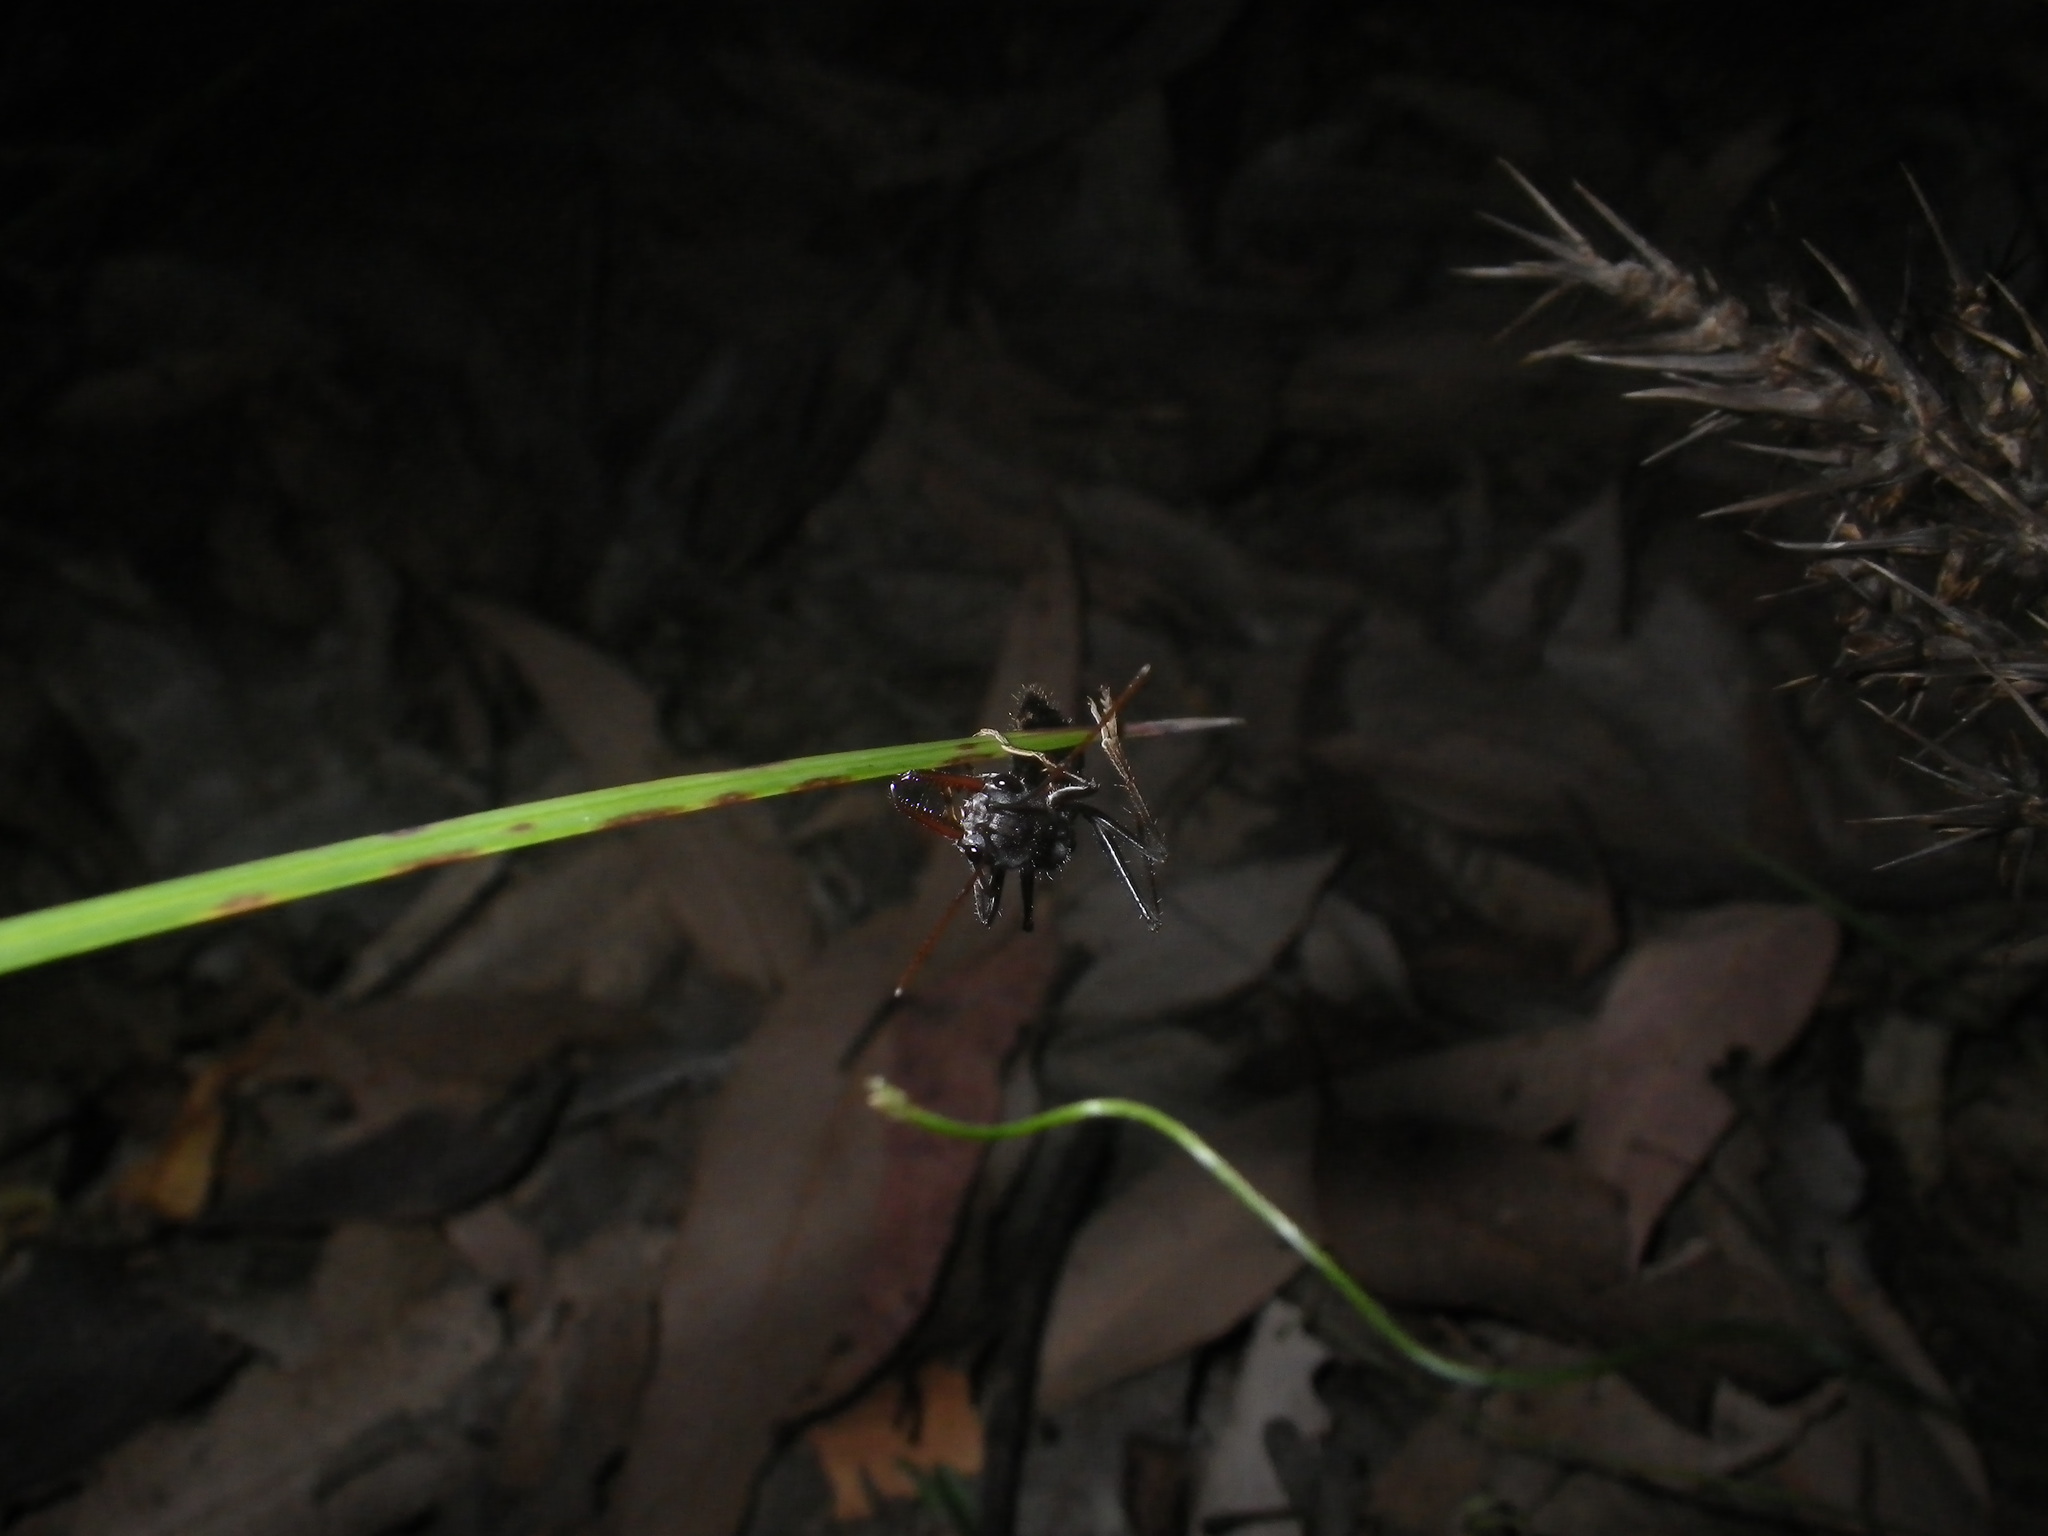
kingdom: Animalia
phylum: Arthropoda
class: Insecta
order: Hymenoptera
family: Formicidae
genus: Myrmecia
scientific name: Myrmecia simillima
